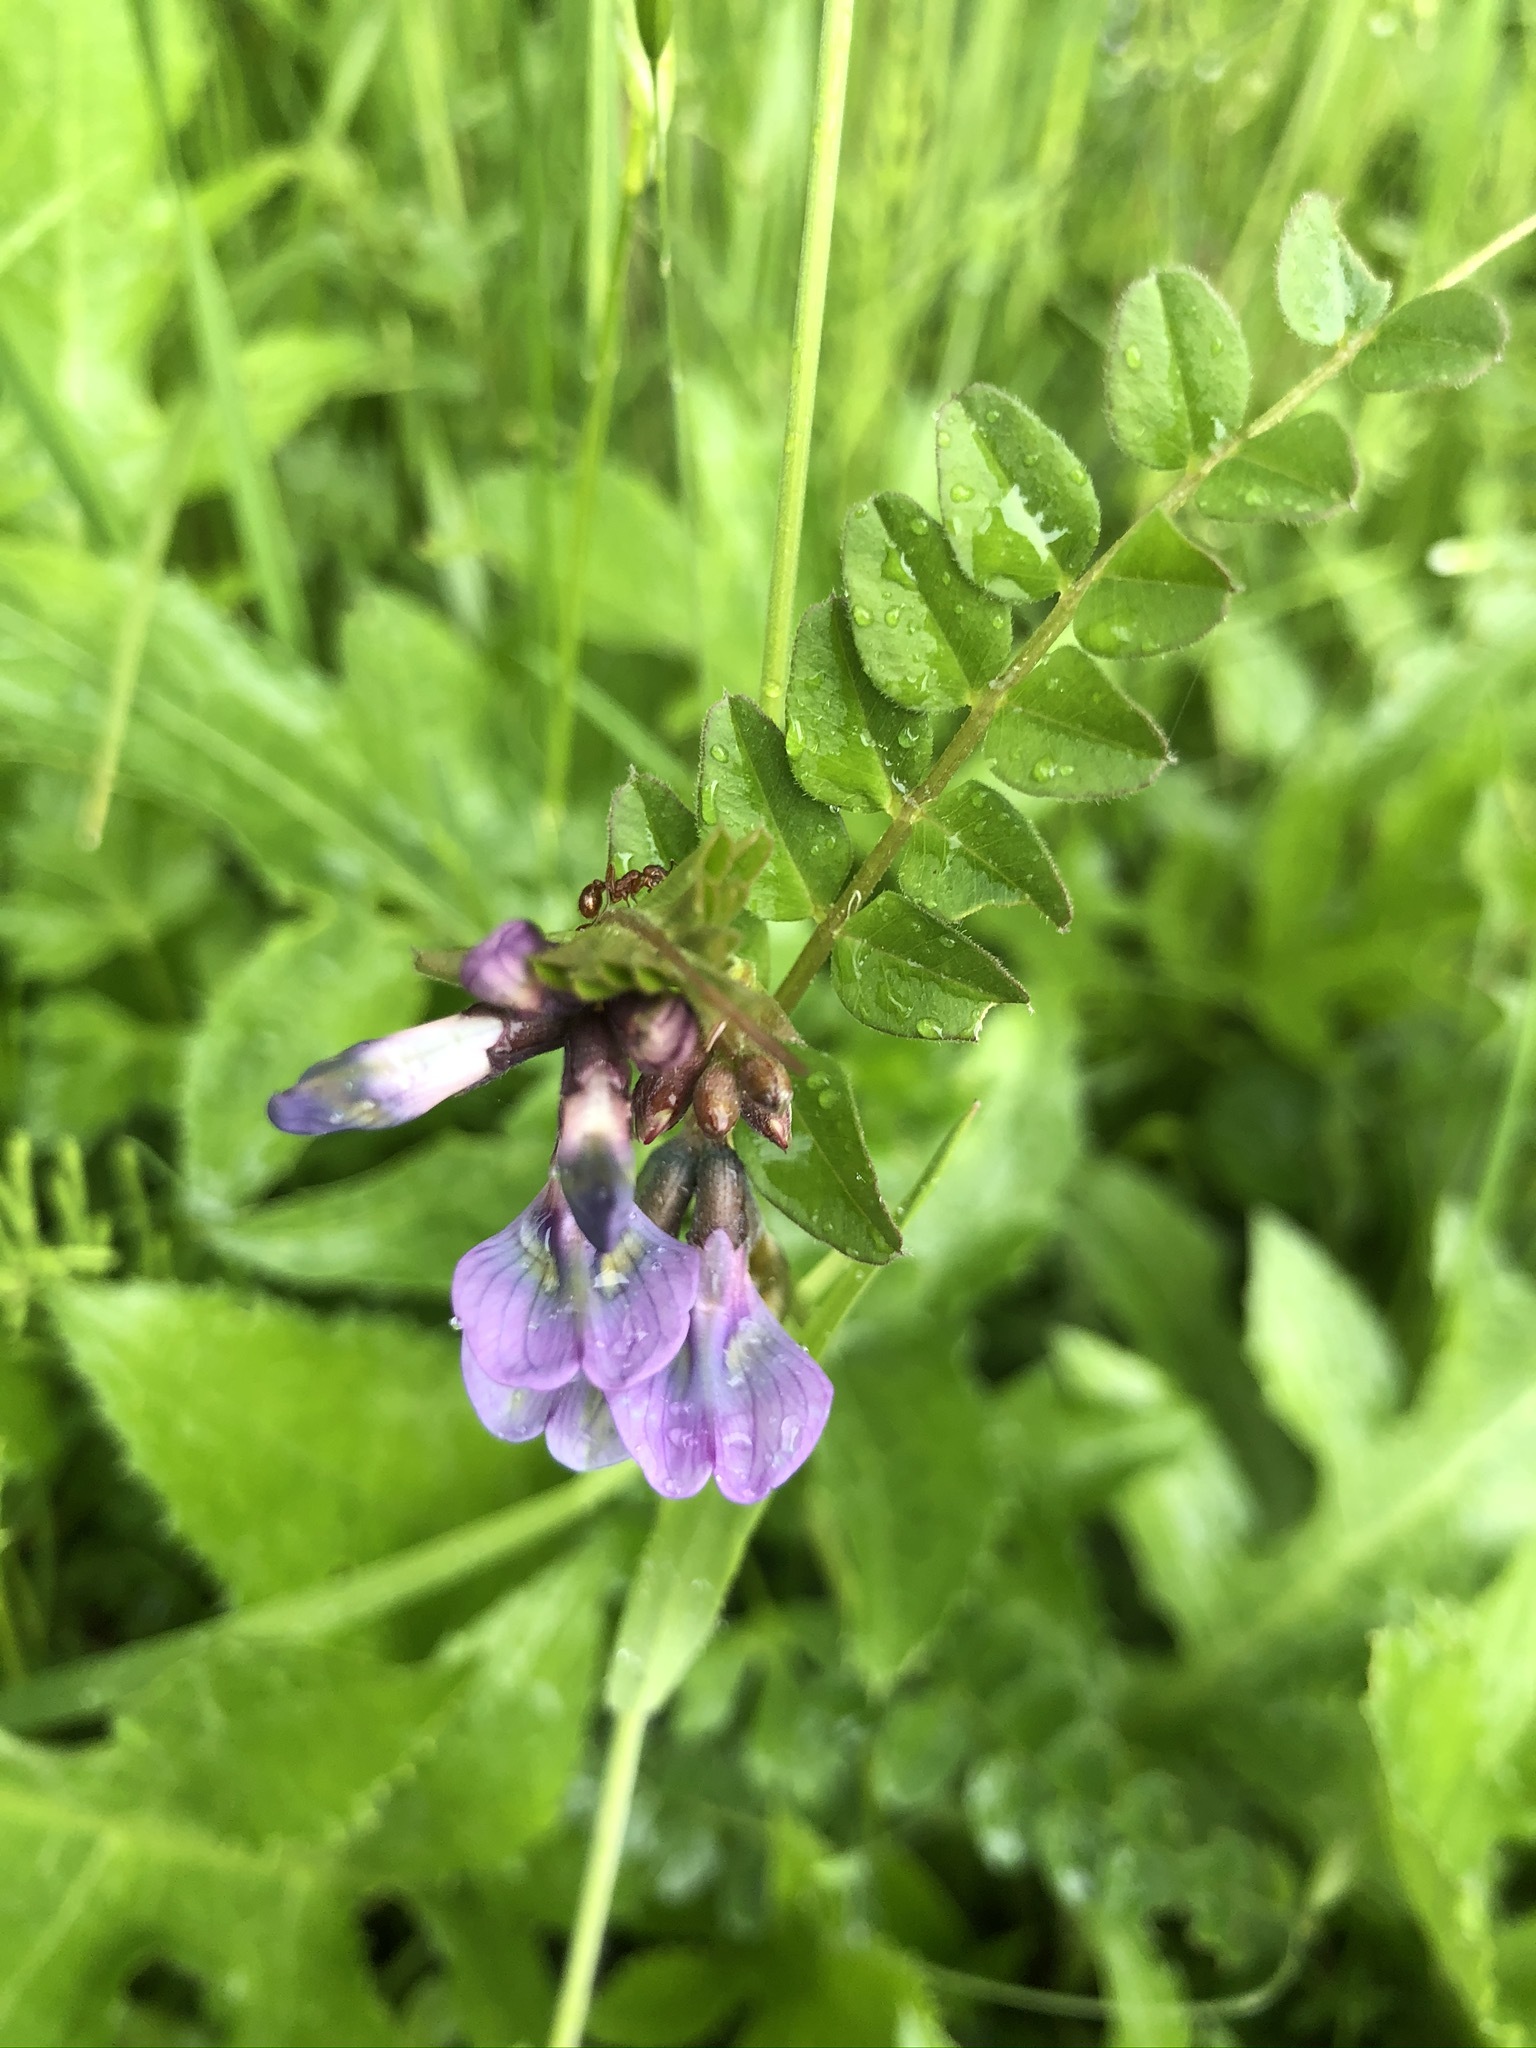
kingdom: Plantae
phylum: Tracheophyta
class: Magnoliopsida
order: Fabales
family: Fabaceae
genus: Vicia
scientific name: Vicia sepium
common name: Bush vetch
